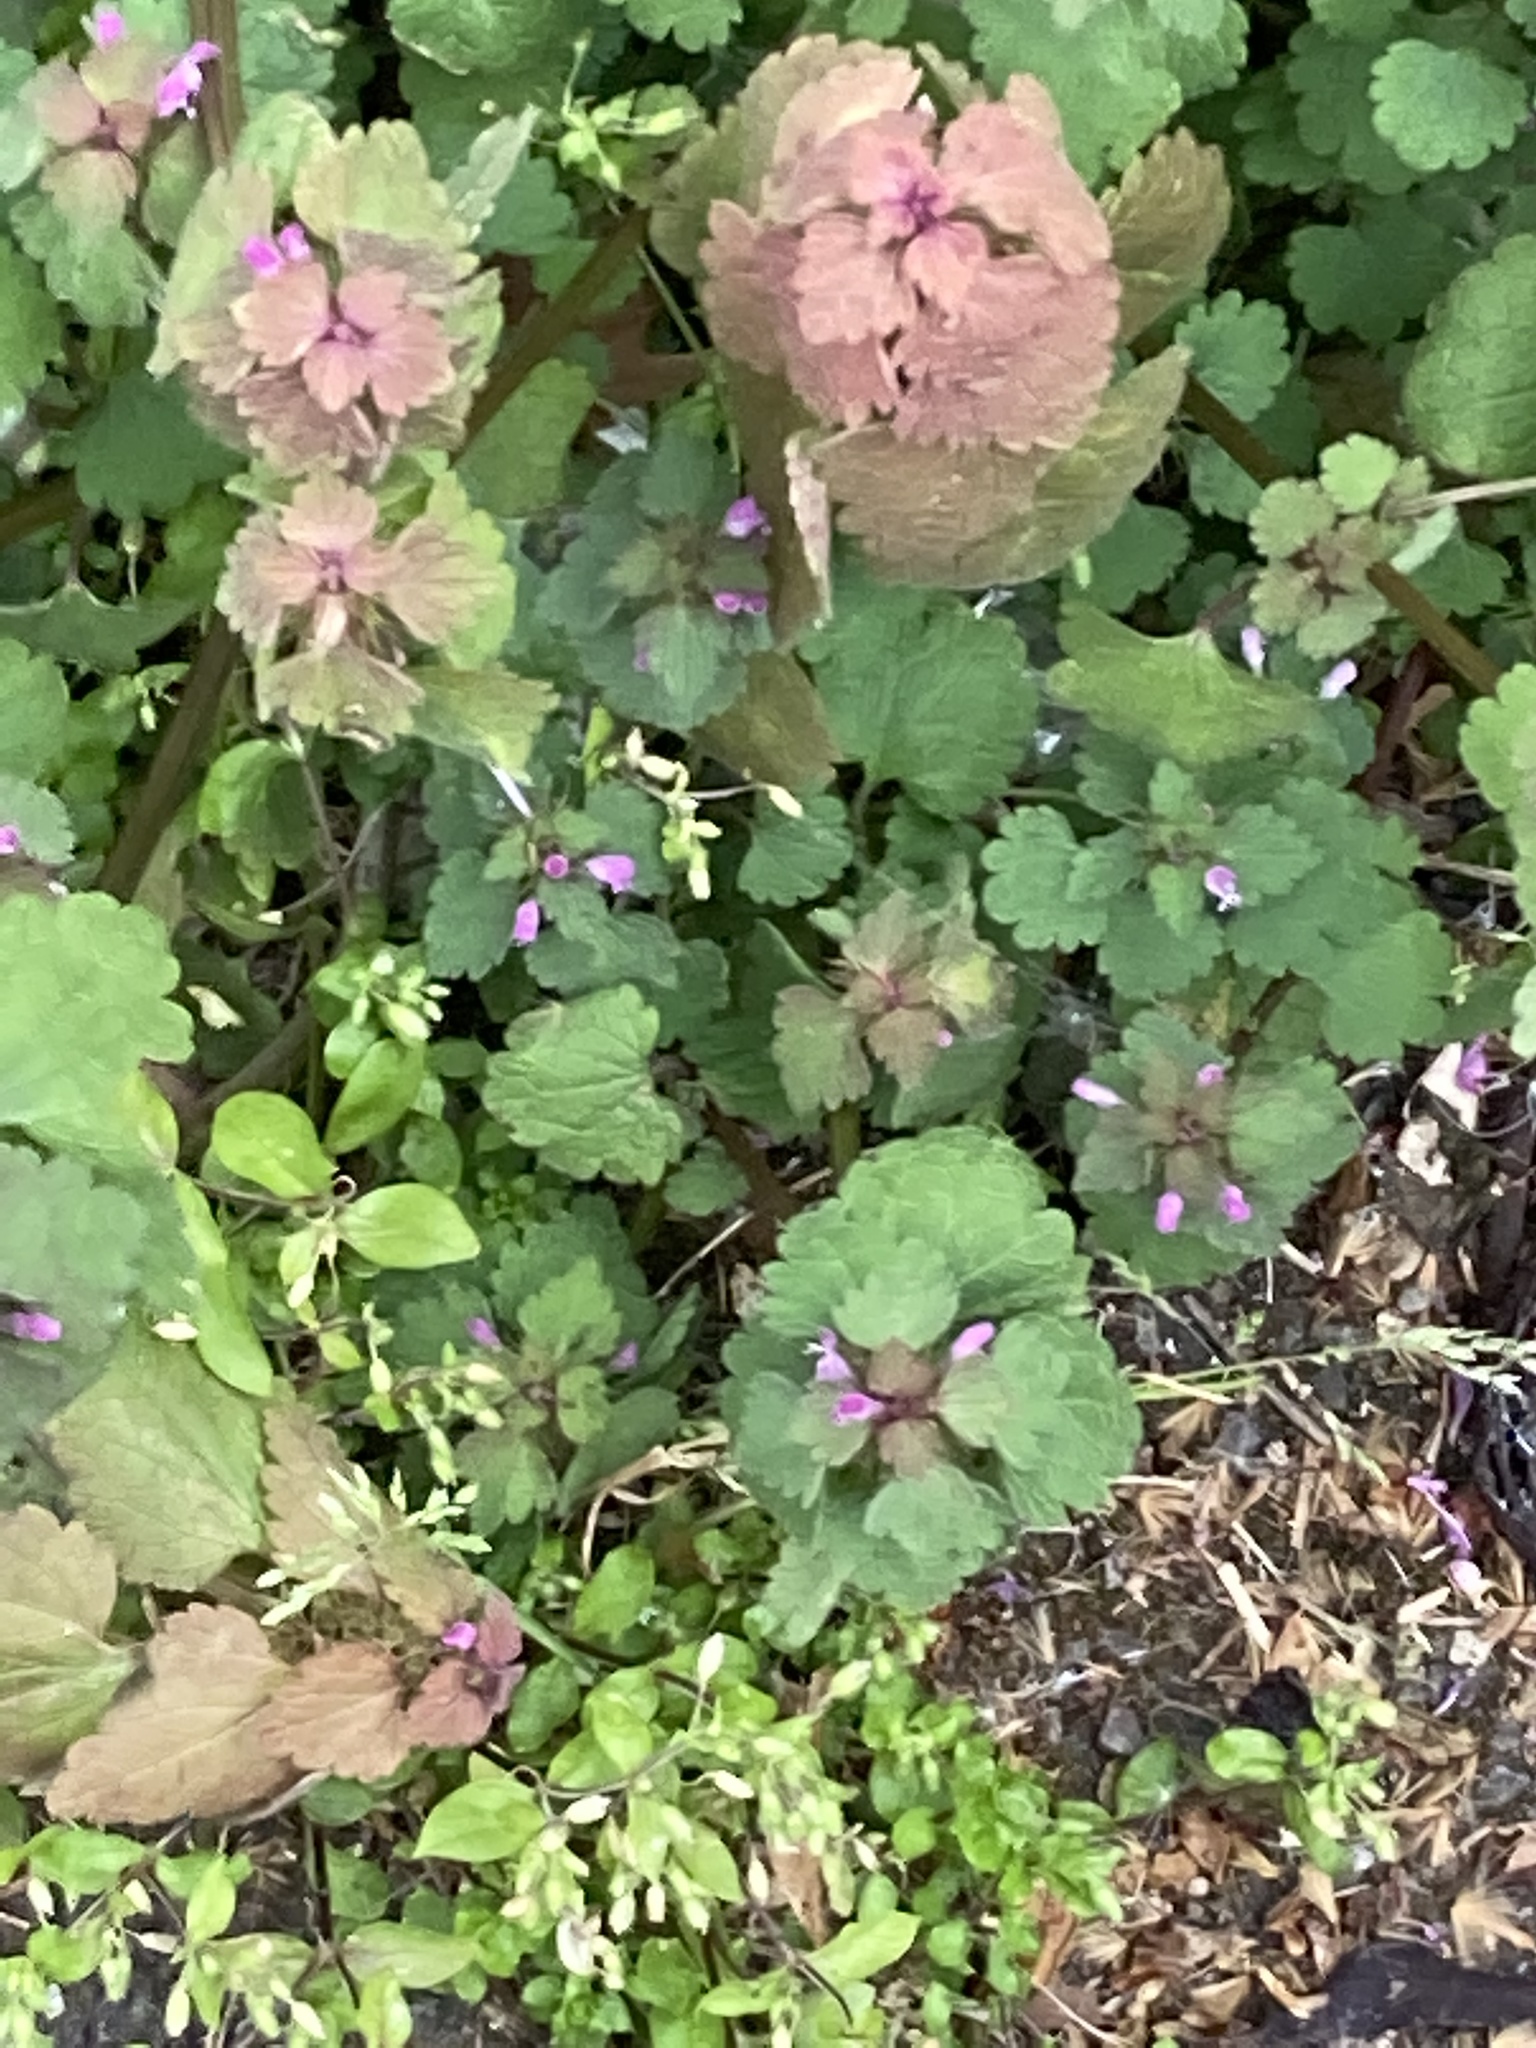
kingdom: Plantae
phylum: Tracheophyta
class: Magnoliopsida
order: Lamiales
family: Lamiaceae
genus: Lamium
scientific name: Lamium purpureum
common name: Red dead-nettle
